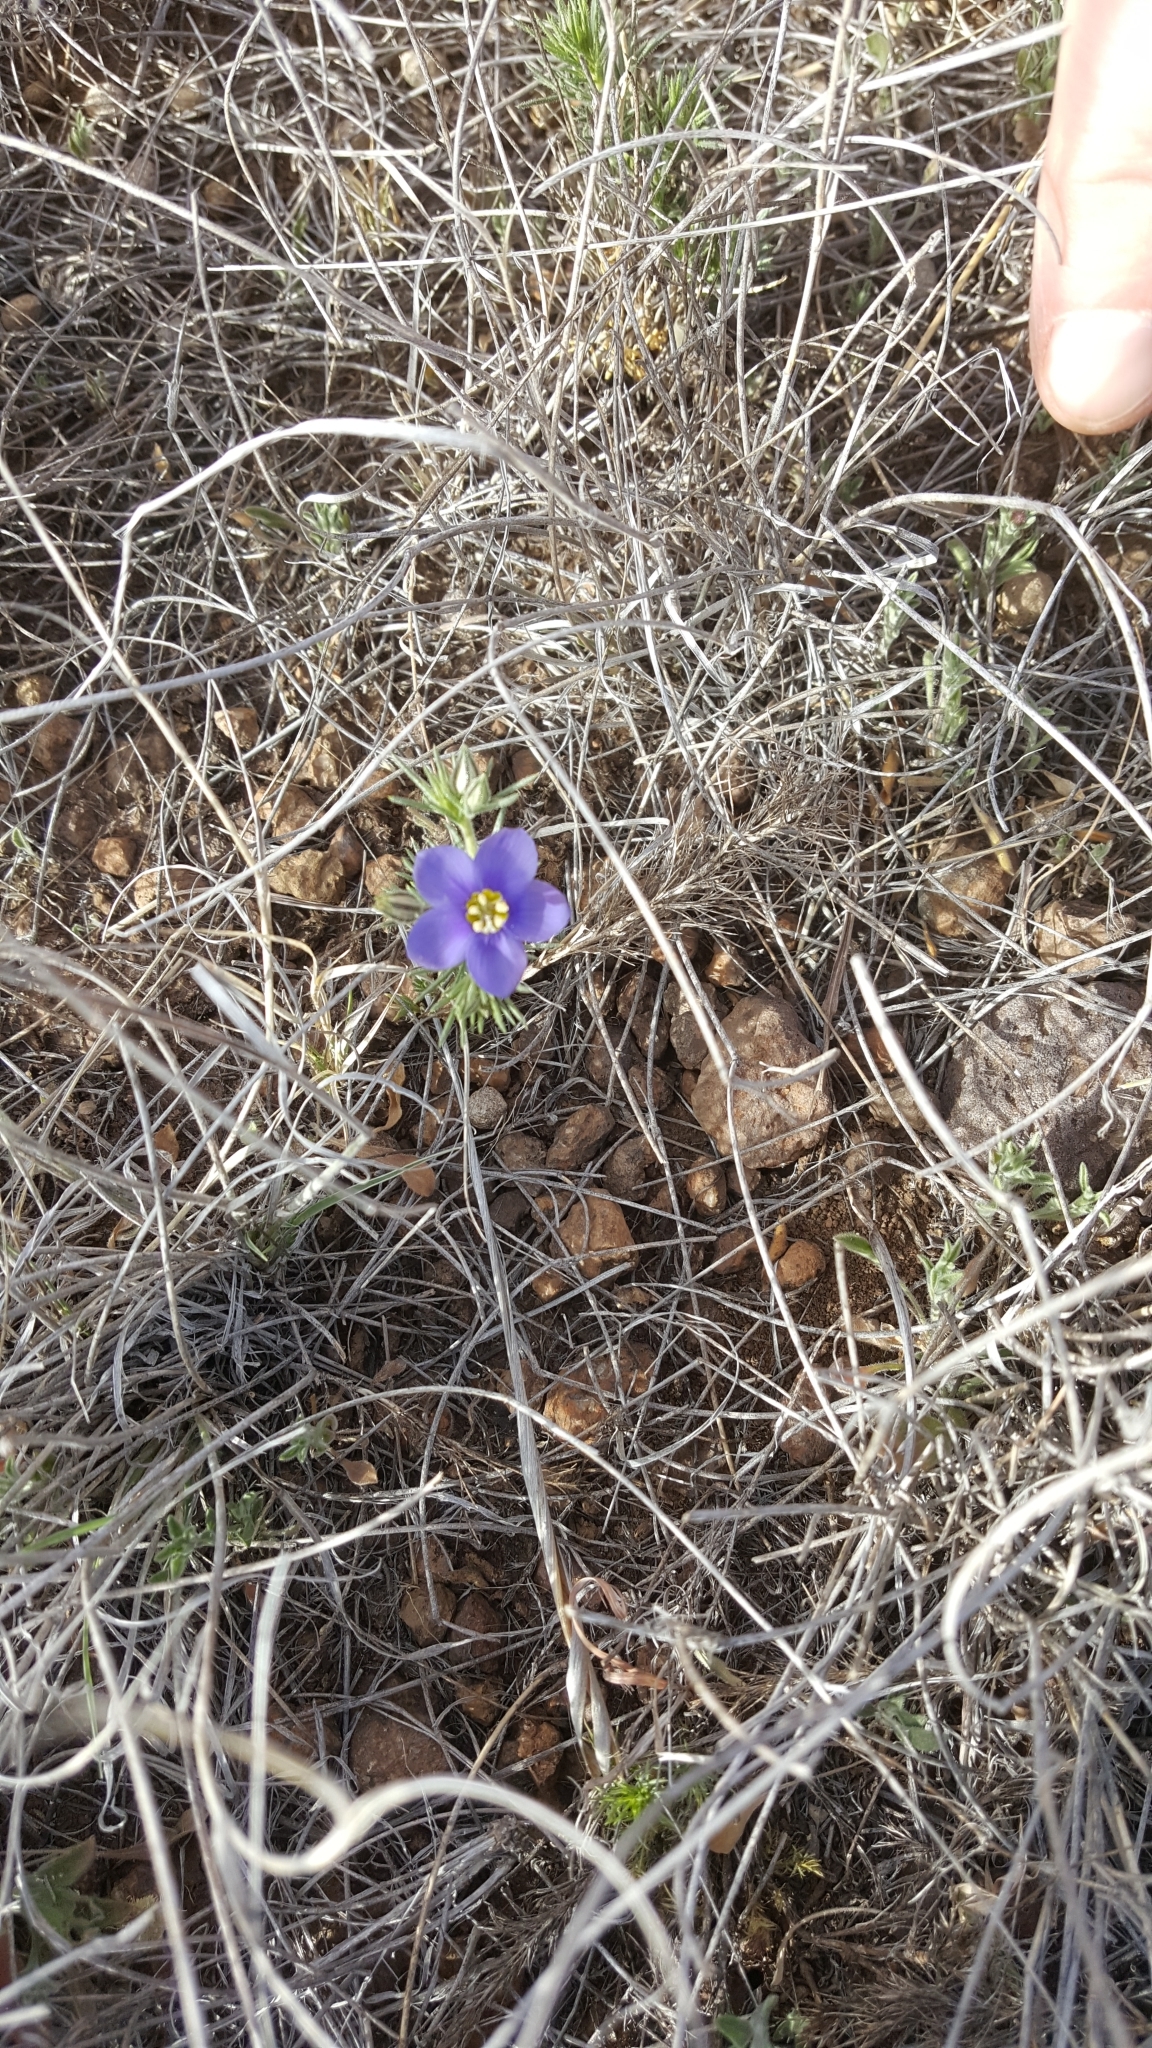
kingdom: Plantae
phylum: Tracheophyta
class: Magnoliopsida
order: Ericales
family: Polemoniaceae
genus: Giliastrum
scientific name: Giliastrum acerosum
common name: Bluebowls
